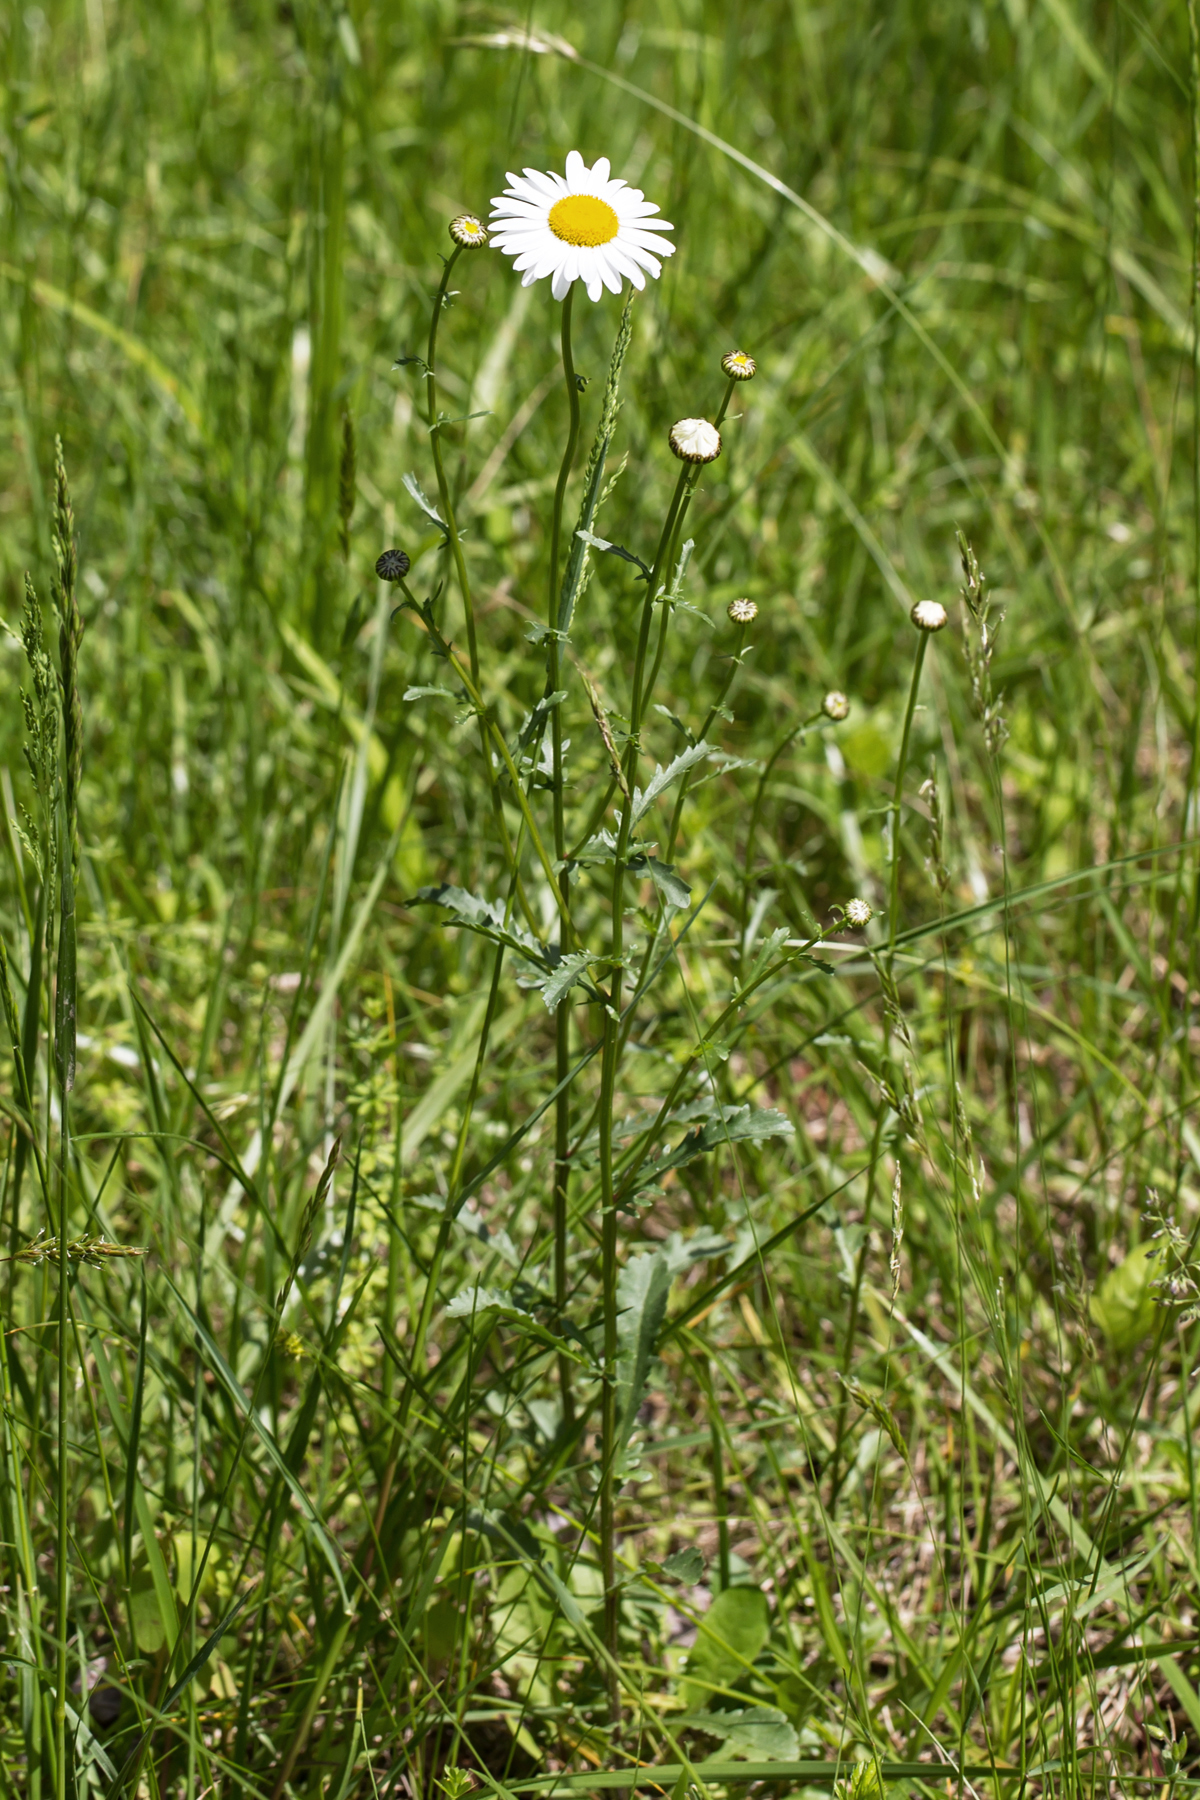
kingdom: Plantae
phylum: Tracheophyta
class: Magnoliopsida
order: Asterales
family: Asteraceae
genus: Leucanthemum
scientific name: Leucanthemum vulgare
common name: Oxeye daisy
